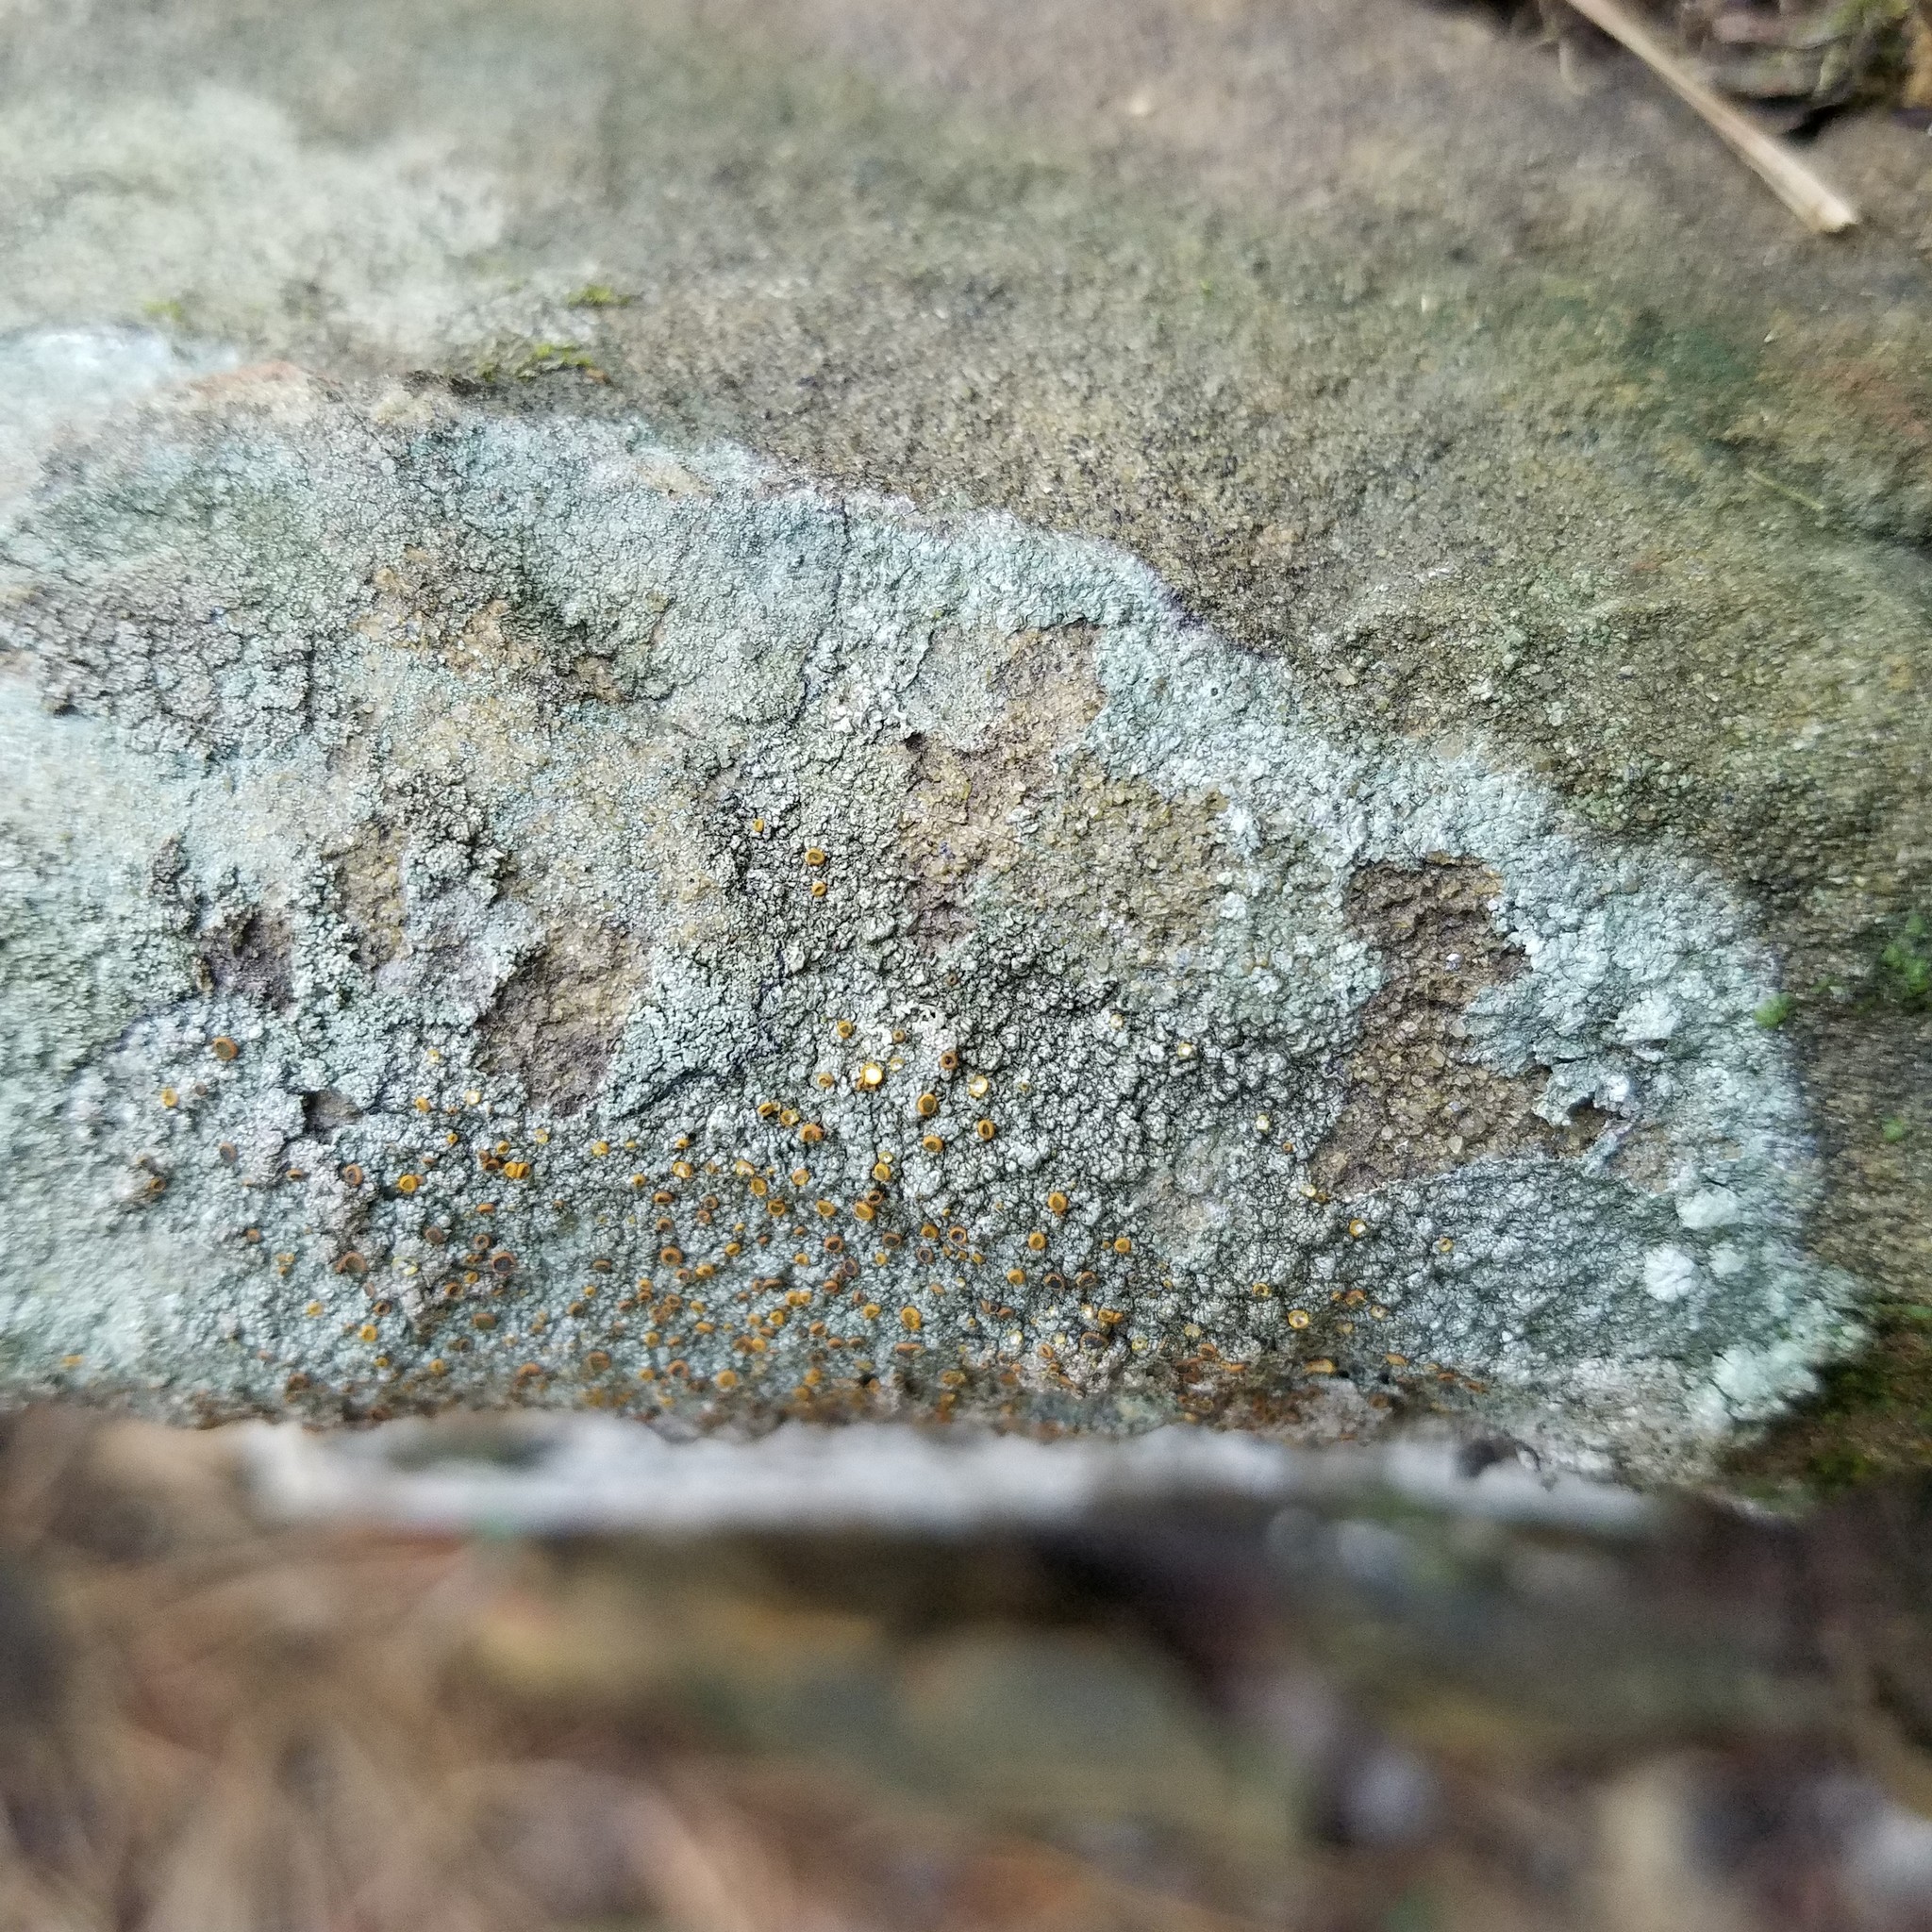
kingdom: Fungi
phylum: Ascomycota
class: Lecanoromycetes
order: Teloschistales
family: Brigantiaeaceae
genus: Brigantiaea
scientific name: Brigantiaea leucoxantha
